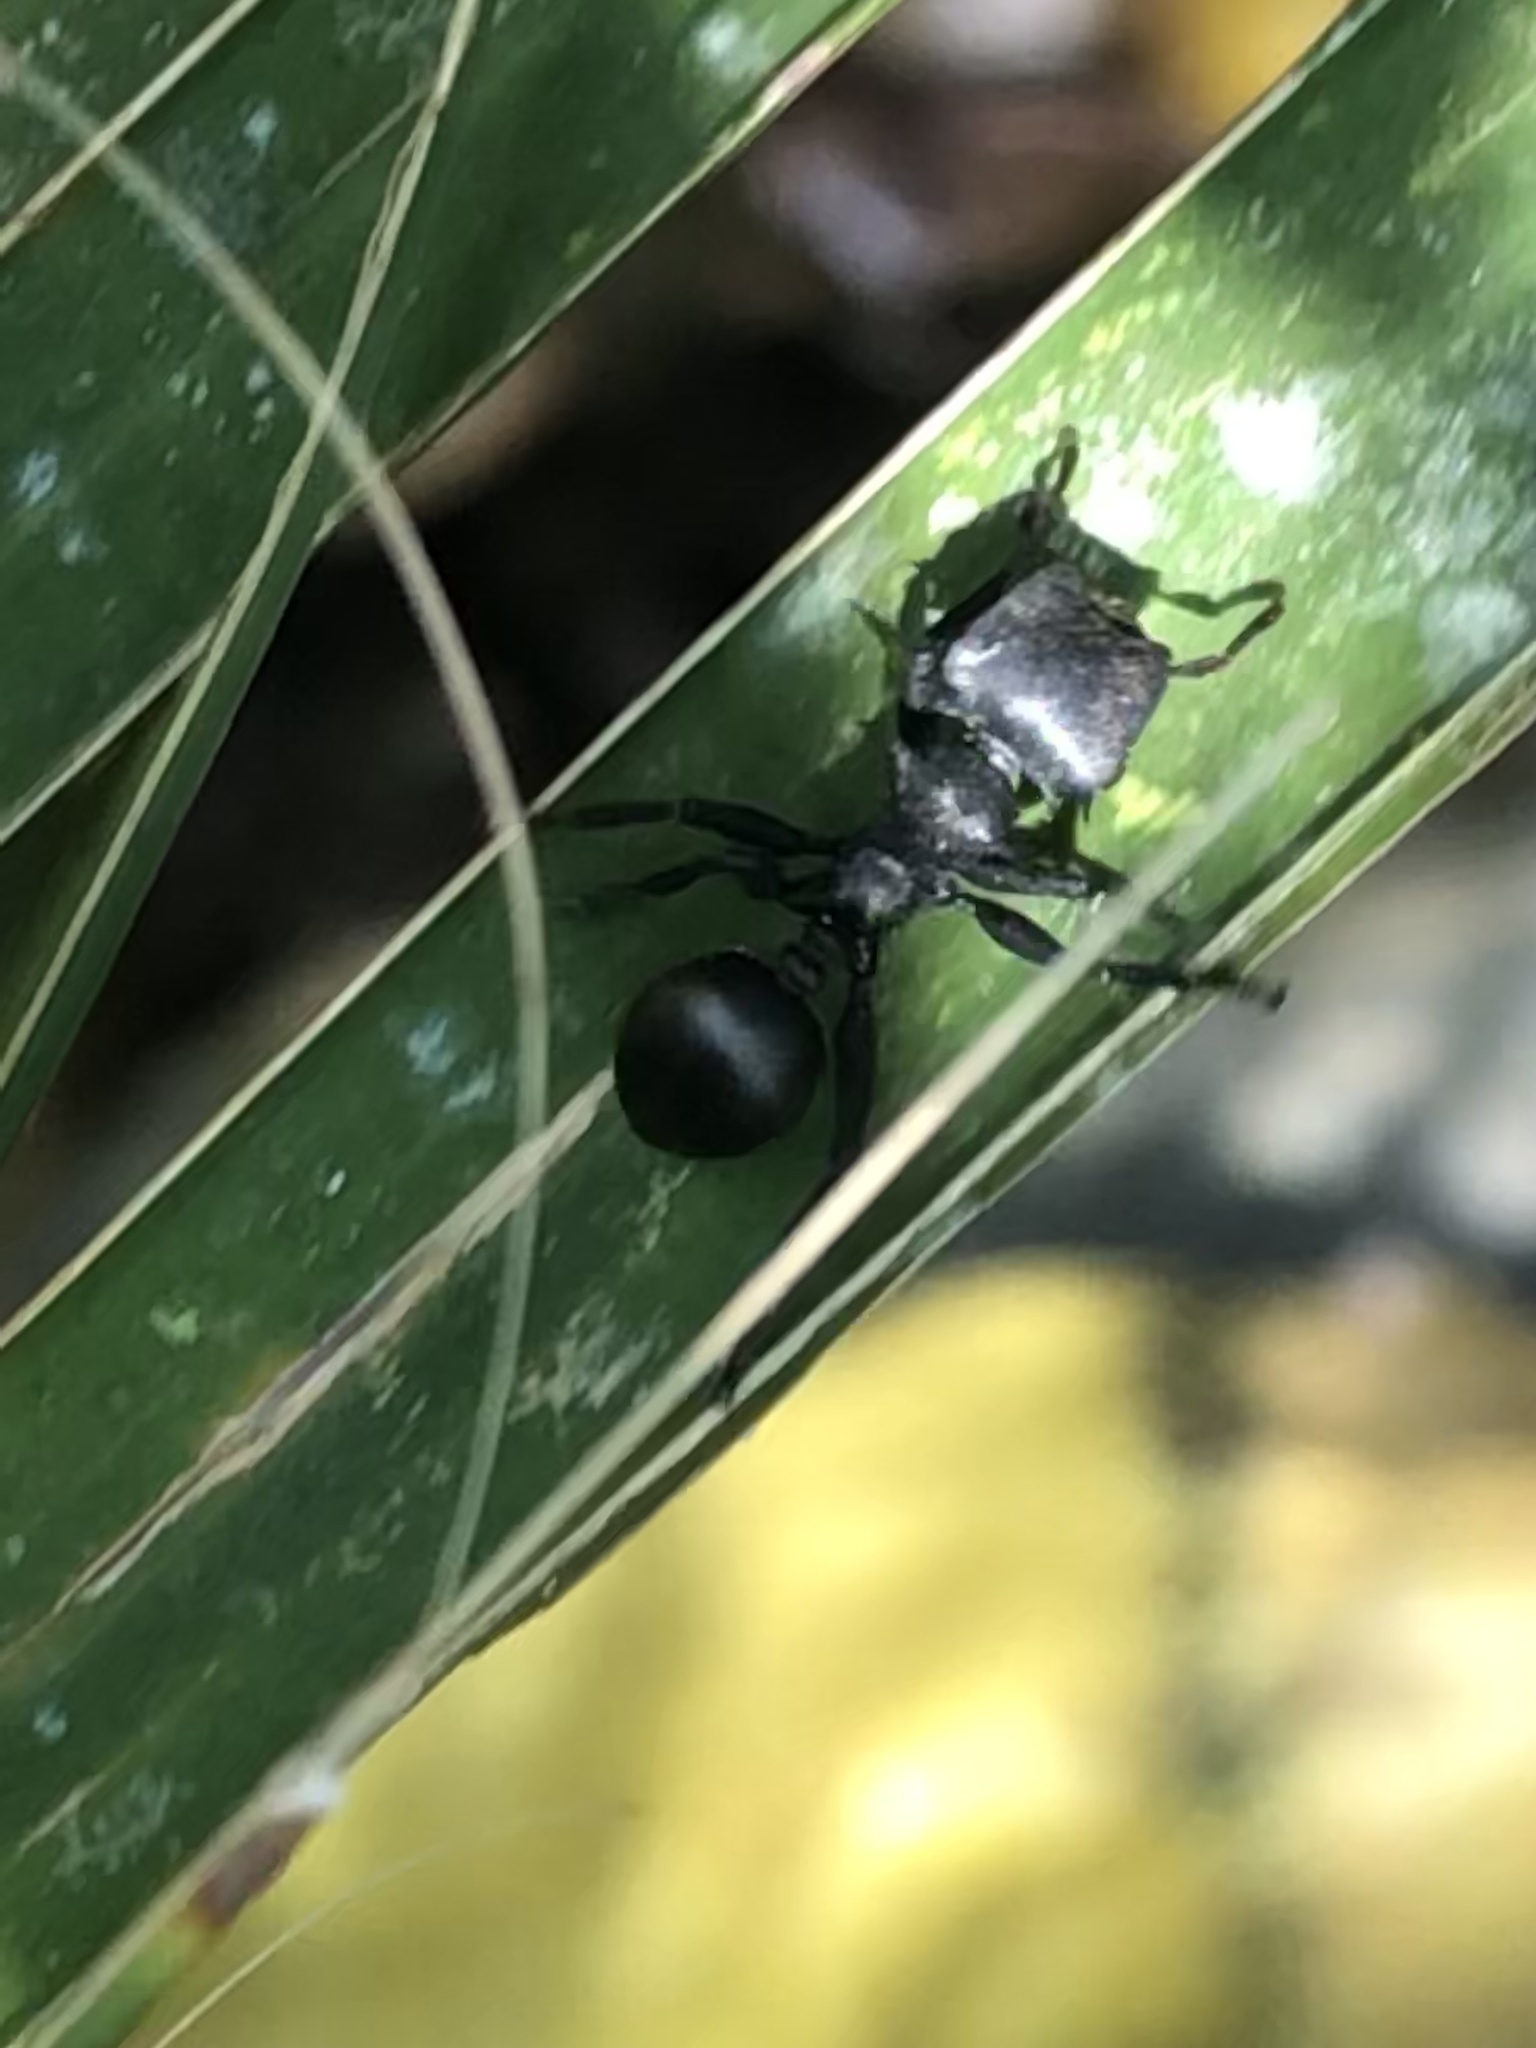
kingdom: Animalia
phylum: Arthropoda
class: Insecta
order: Hymenoptera
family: Formicidae
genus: Cephalotes
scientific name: Cephalotes atratus
